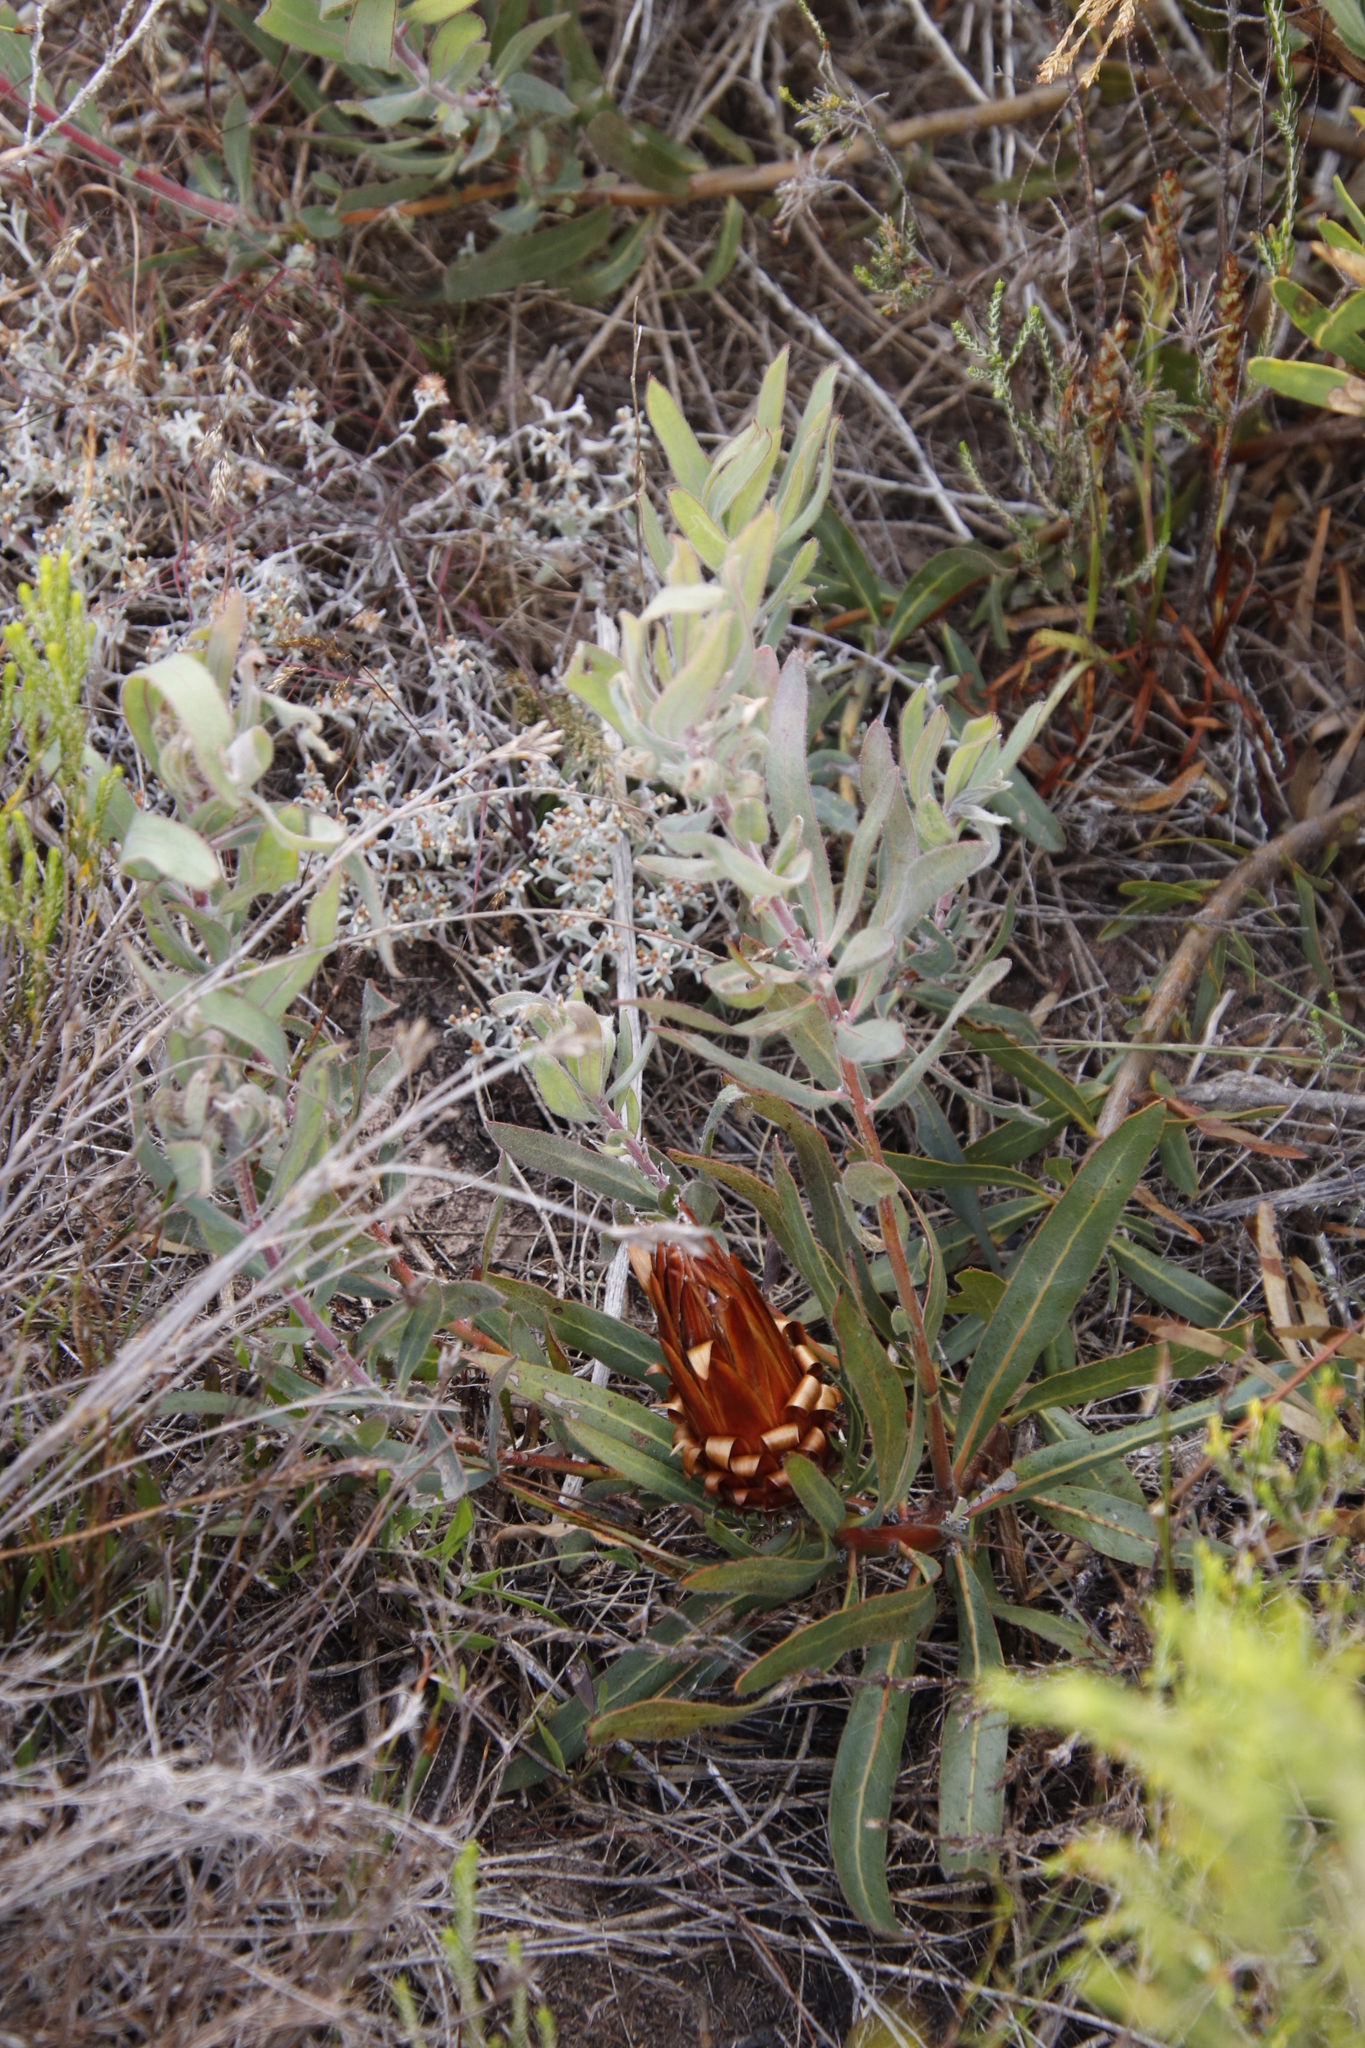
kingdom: Plantae
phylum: Tracheophyta
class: Magnoliopsida
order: Proteales
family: Proteaceae
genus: Protea
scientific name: Protea
